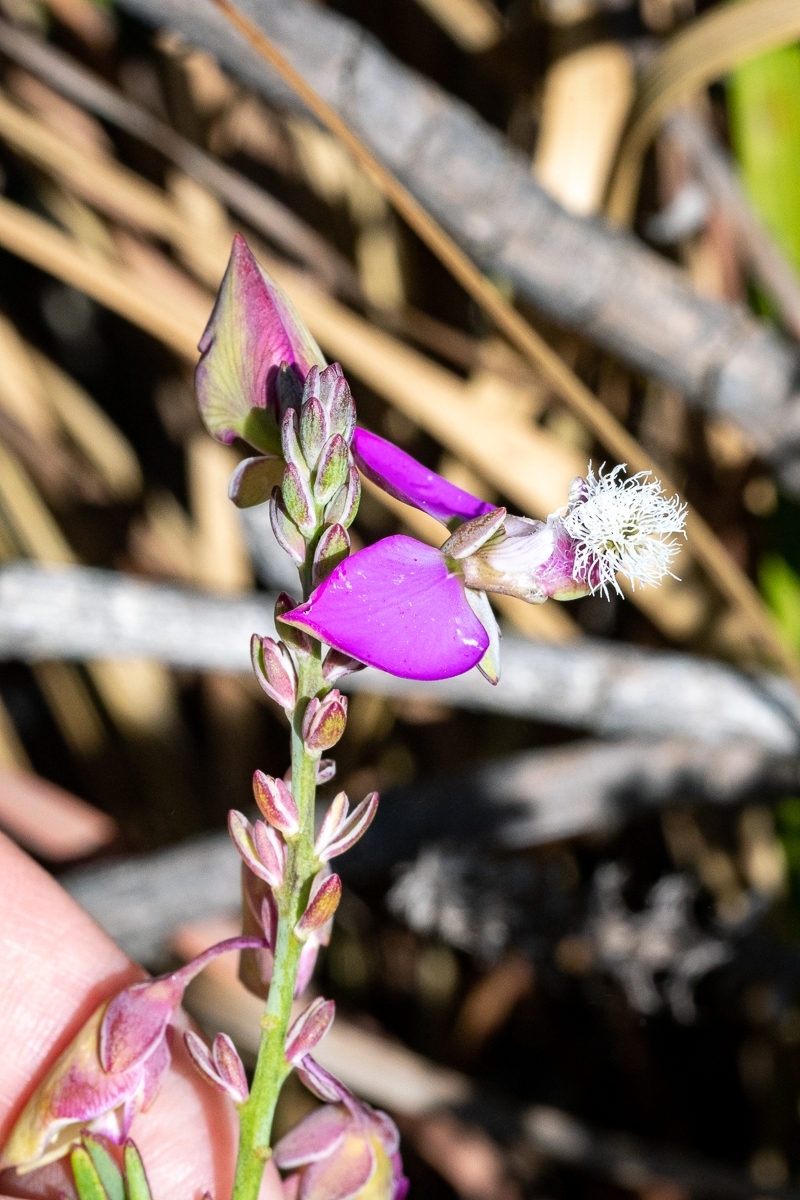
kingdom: Plantae
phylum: Tracheophyta
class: Magnoliopsida
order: Fabales
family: Polygalaceae
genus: Polygala
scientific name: Polygala bracteolata
